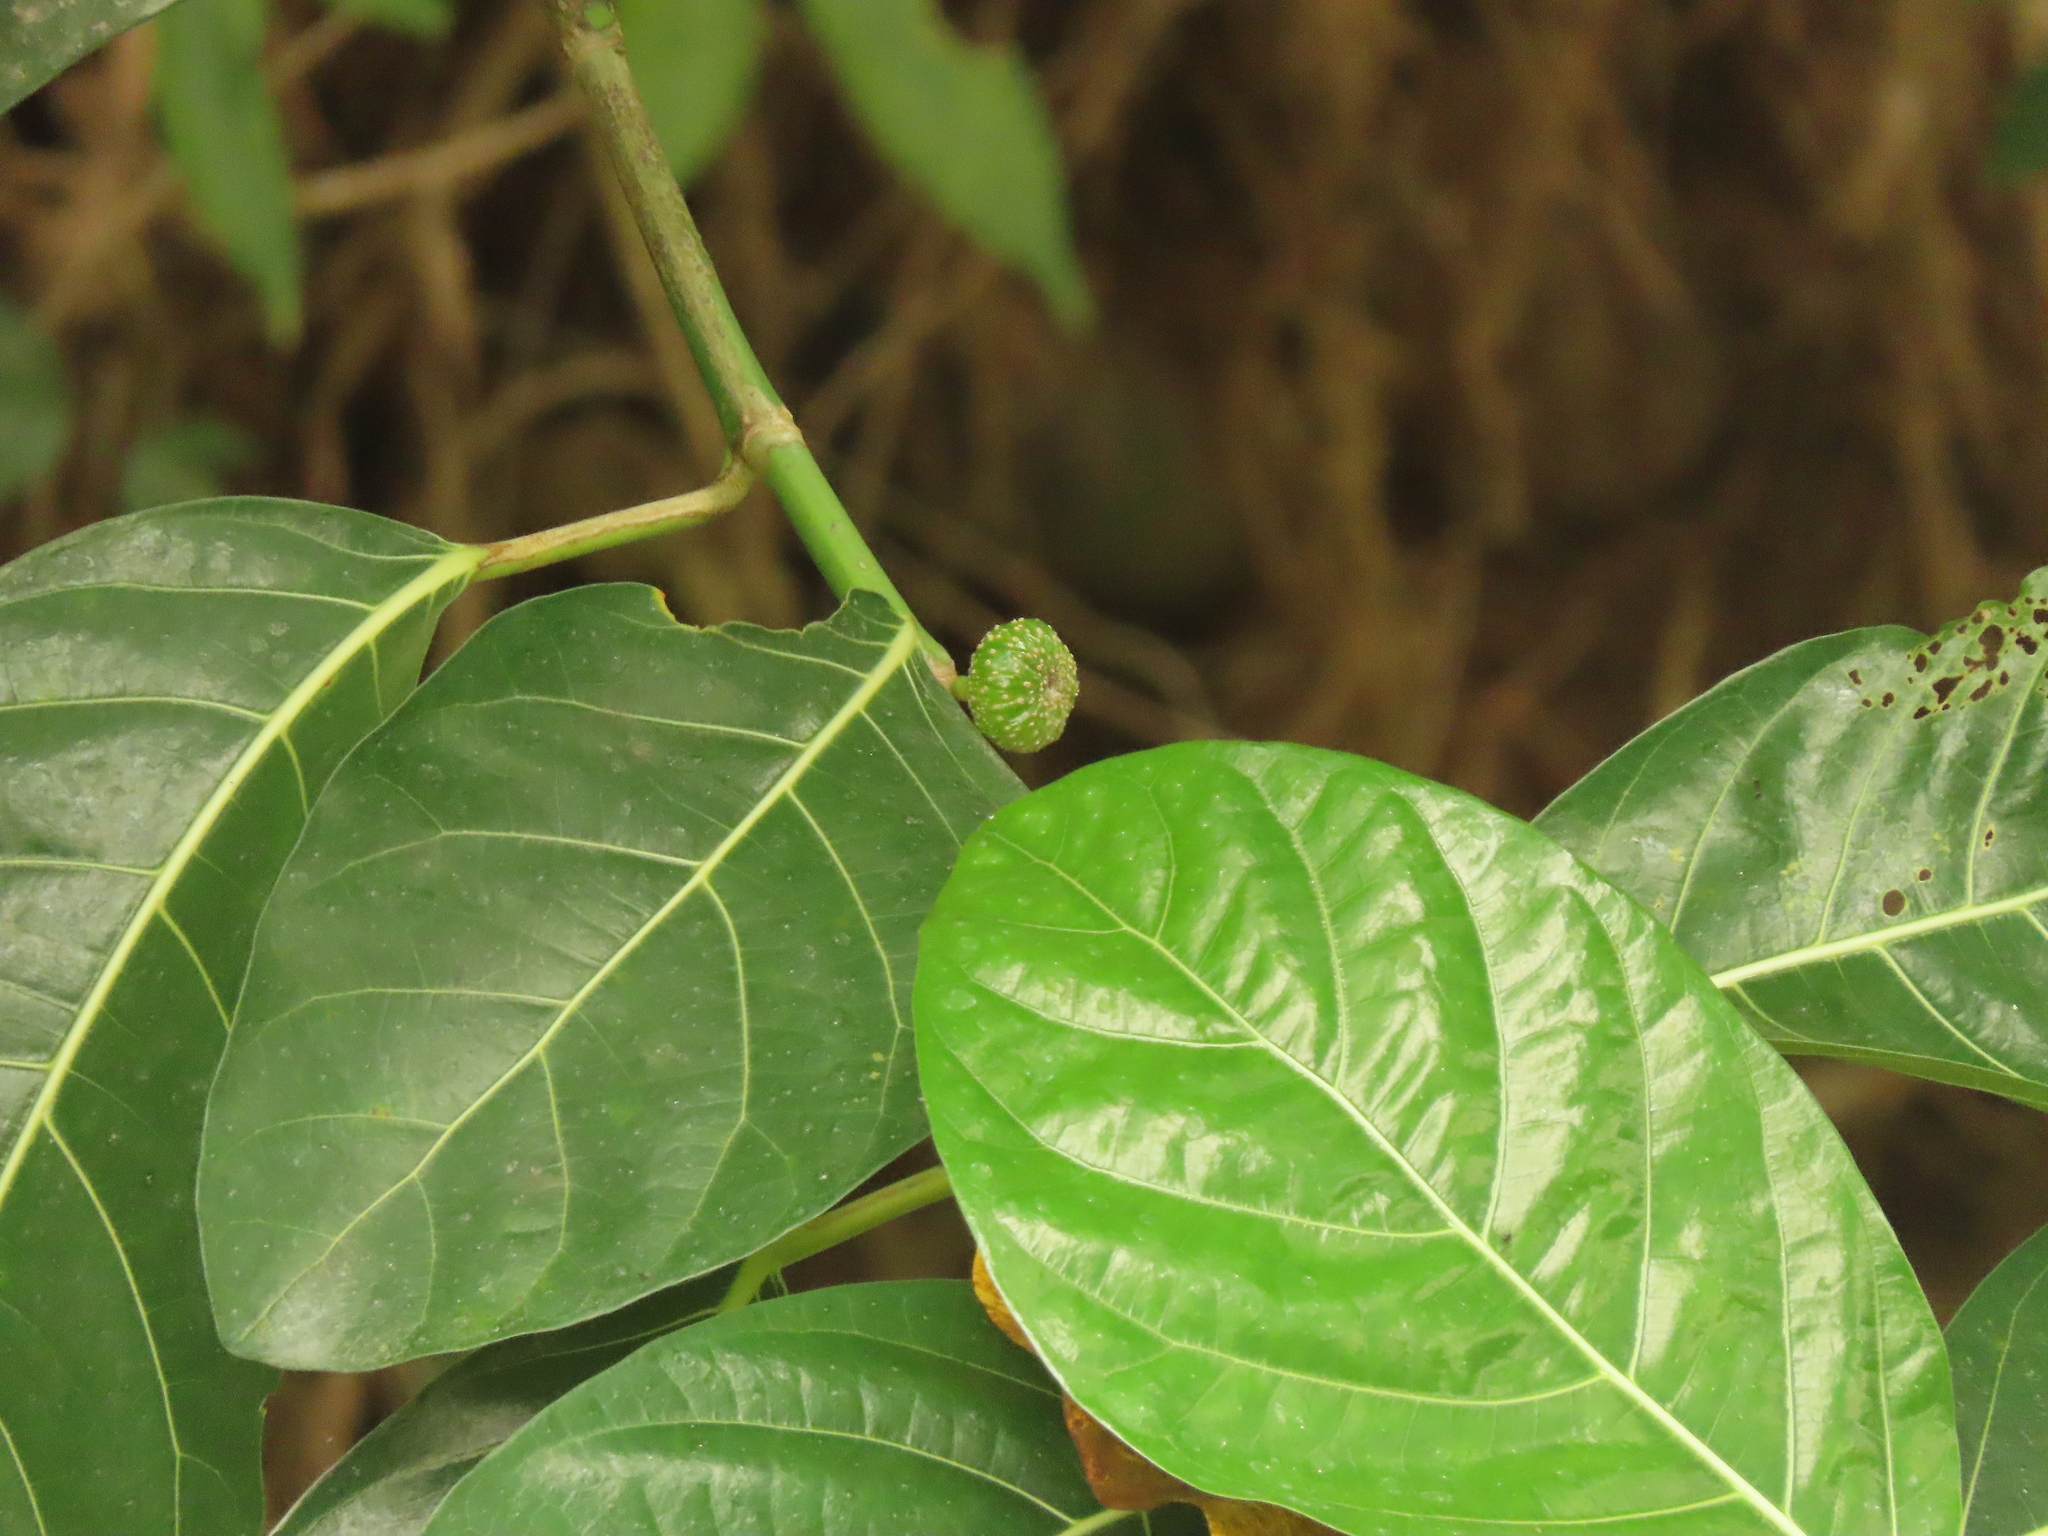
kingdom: Plantae
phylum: Tracheophyta
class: Magnoliopsida
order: Rosales
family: Moraceae
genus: Ficus
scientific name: Ficus septica
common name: Septic fig
